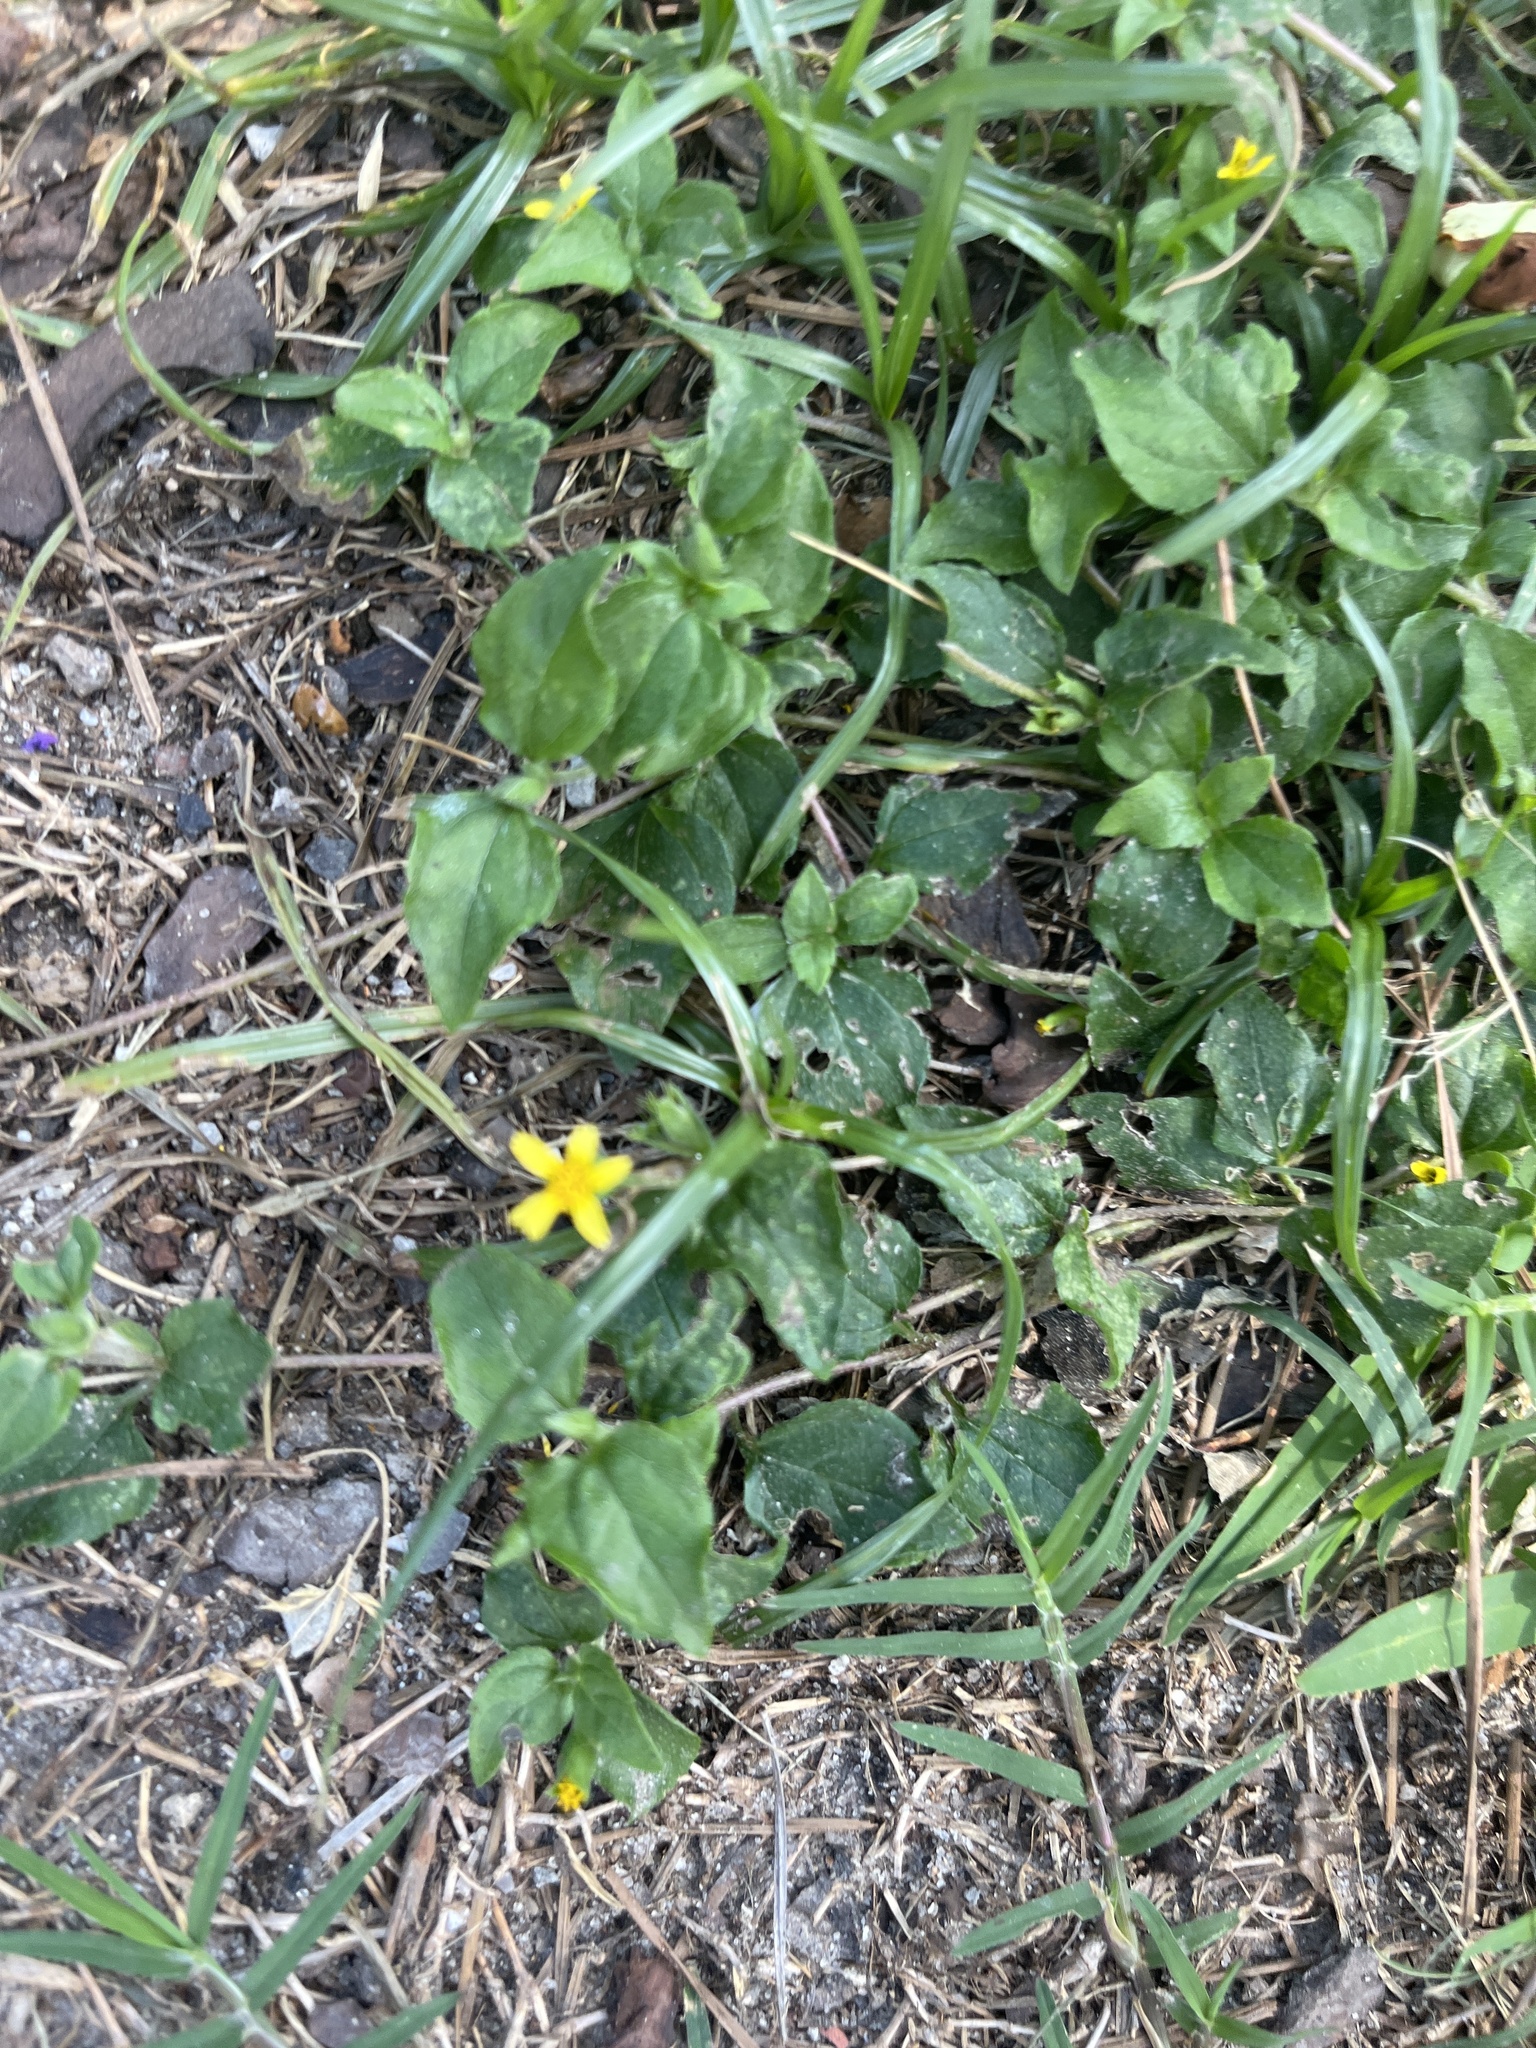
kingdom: Plantae
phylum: Tracheophyta
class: Magnoliopsida
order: Asterales
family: Asteraceae
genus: Calyptocarpus
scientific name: Calyptocarpus vialis
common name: Straggler daisy
